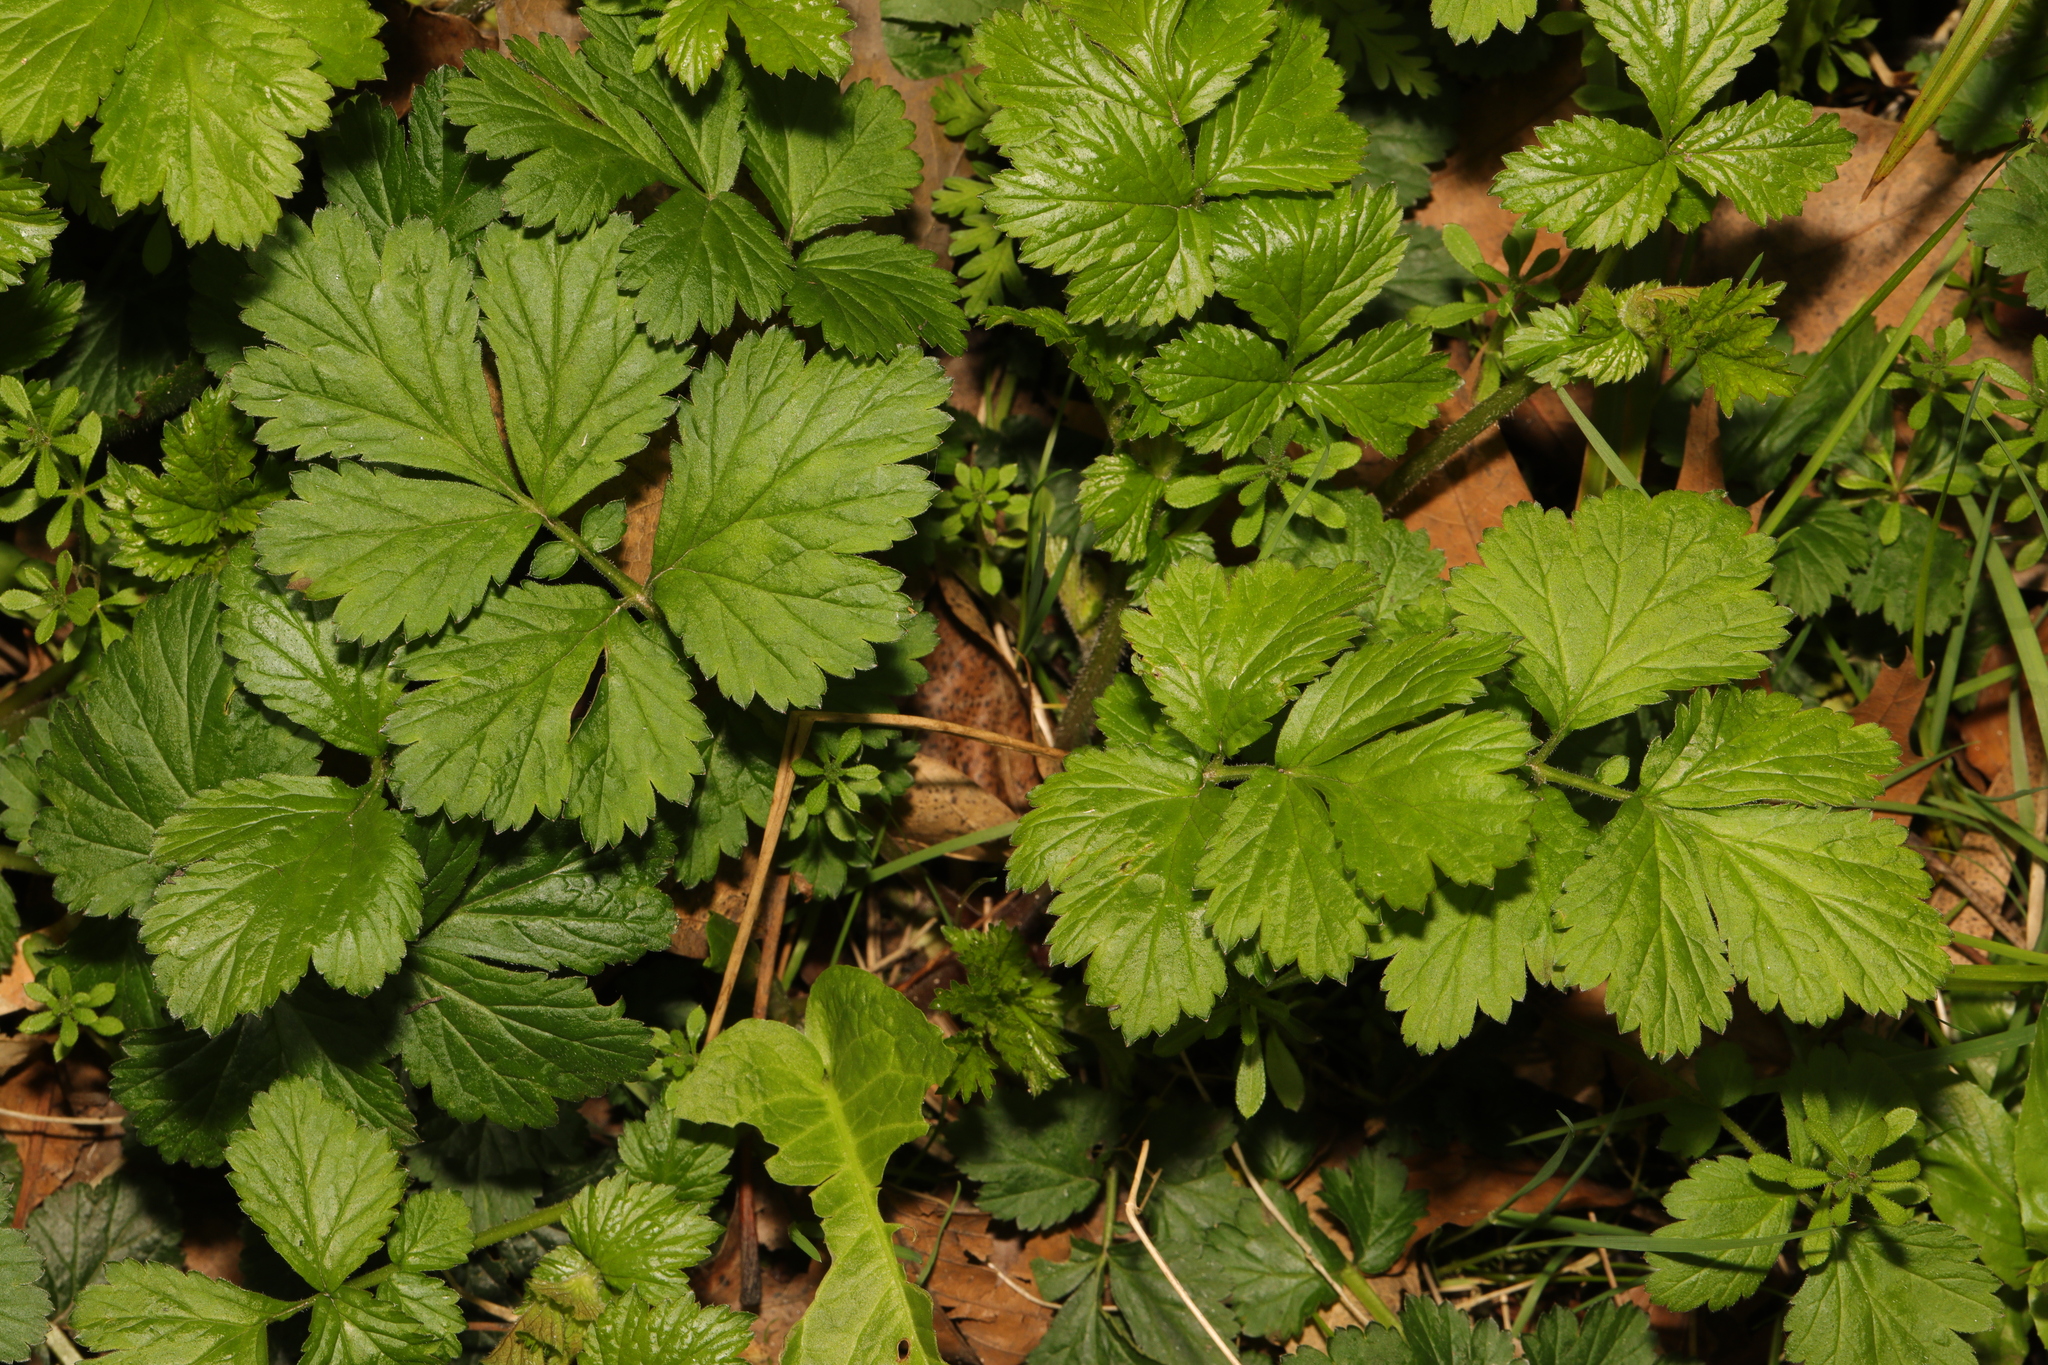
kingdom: Plantae
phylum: Tracheophyta
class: Magnoliopsida
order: Rosales
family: Rosaceae
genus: Geum
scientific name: Geum urbanum
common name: Wood avens
